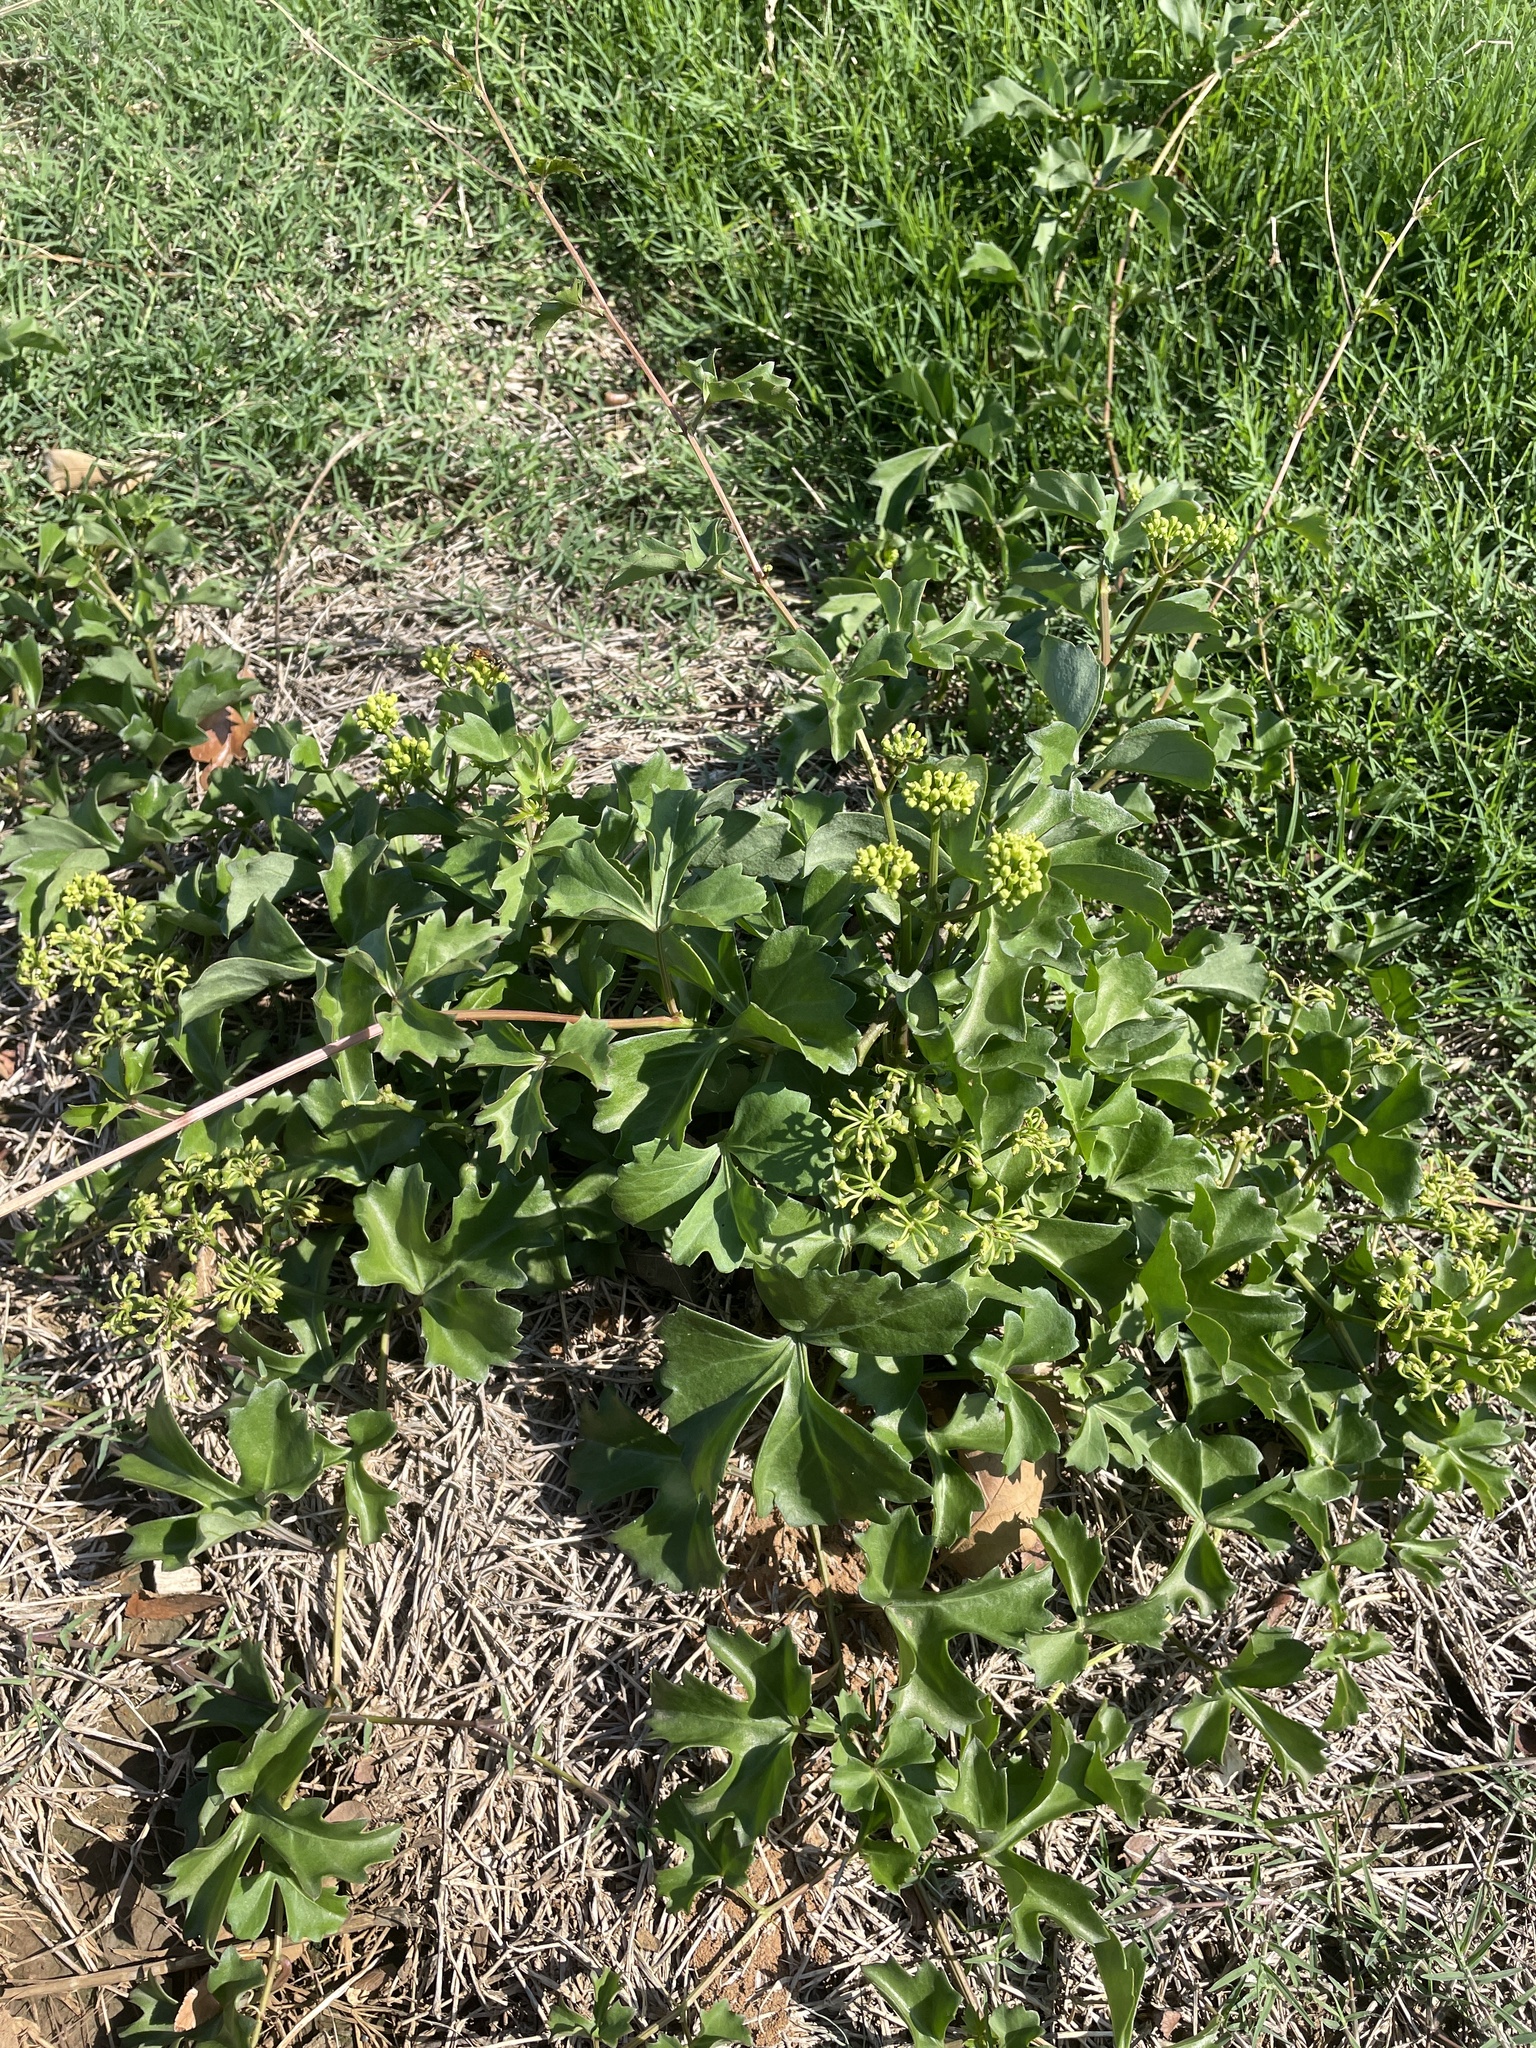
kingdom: Plantae
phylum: Tracheophyta
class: Magnoliopsida
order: Vitales
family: Vitaceae
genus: Cissus
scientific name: Cissus trifoliata
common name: Vine-sorrel
